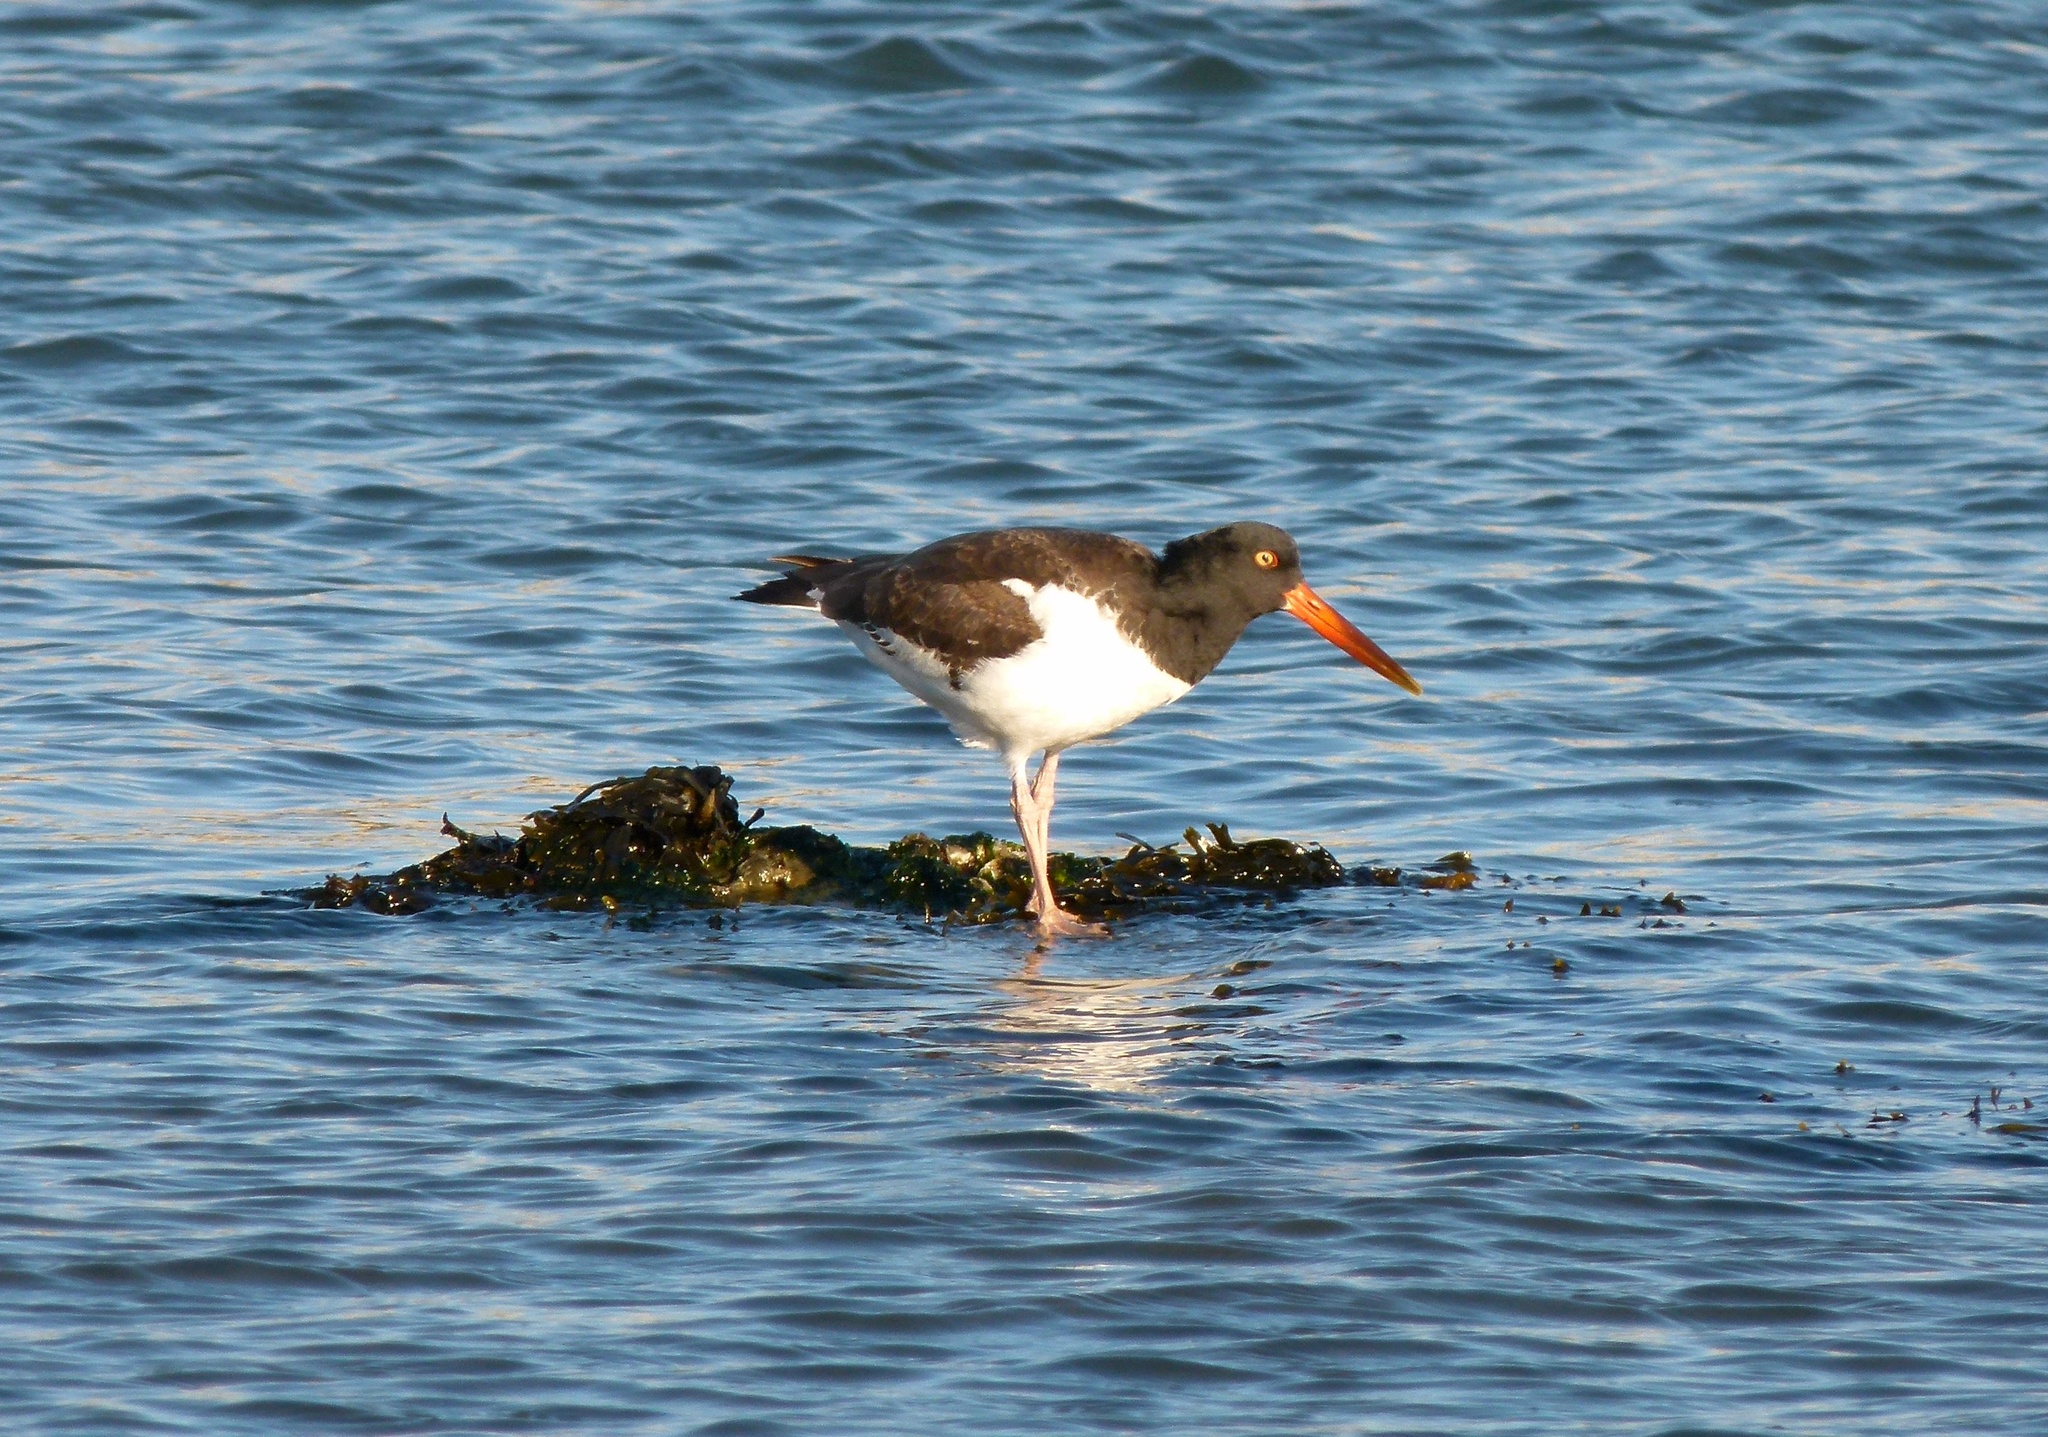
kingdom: Animalia
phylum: Chordata
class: Aves
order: Charadriiformes
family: Haematopodidae
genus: Haematopus
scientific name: Haematopus palliatus
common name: American oystercatcher
